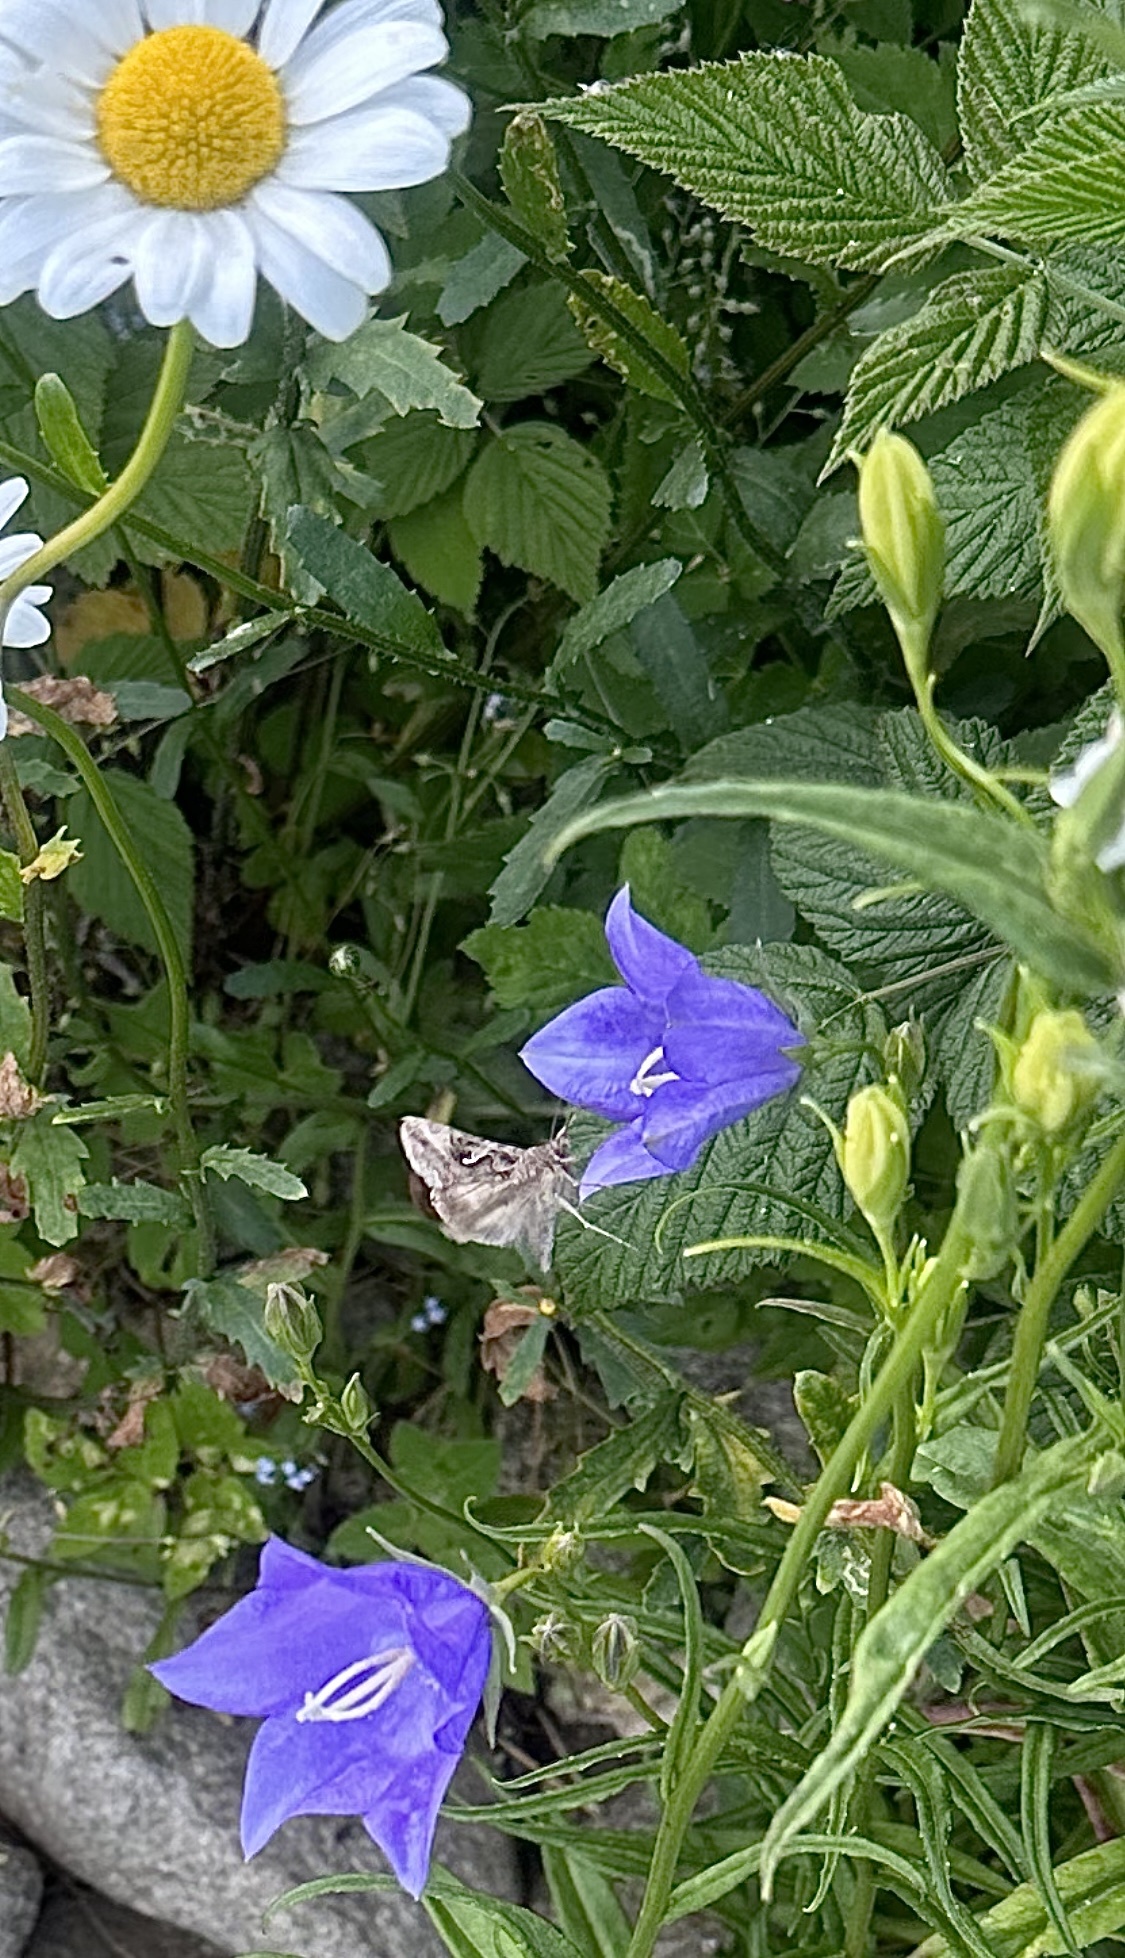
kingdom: Animalia
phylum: Arthropoda
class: Insecta
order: Lepidoptera
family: Noctuidae
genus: Autographa
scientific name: Autographa gamma
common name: Silver y
